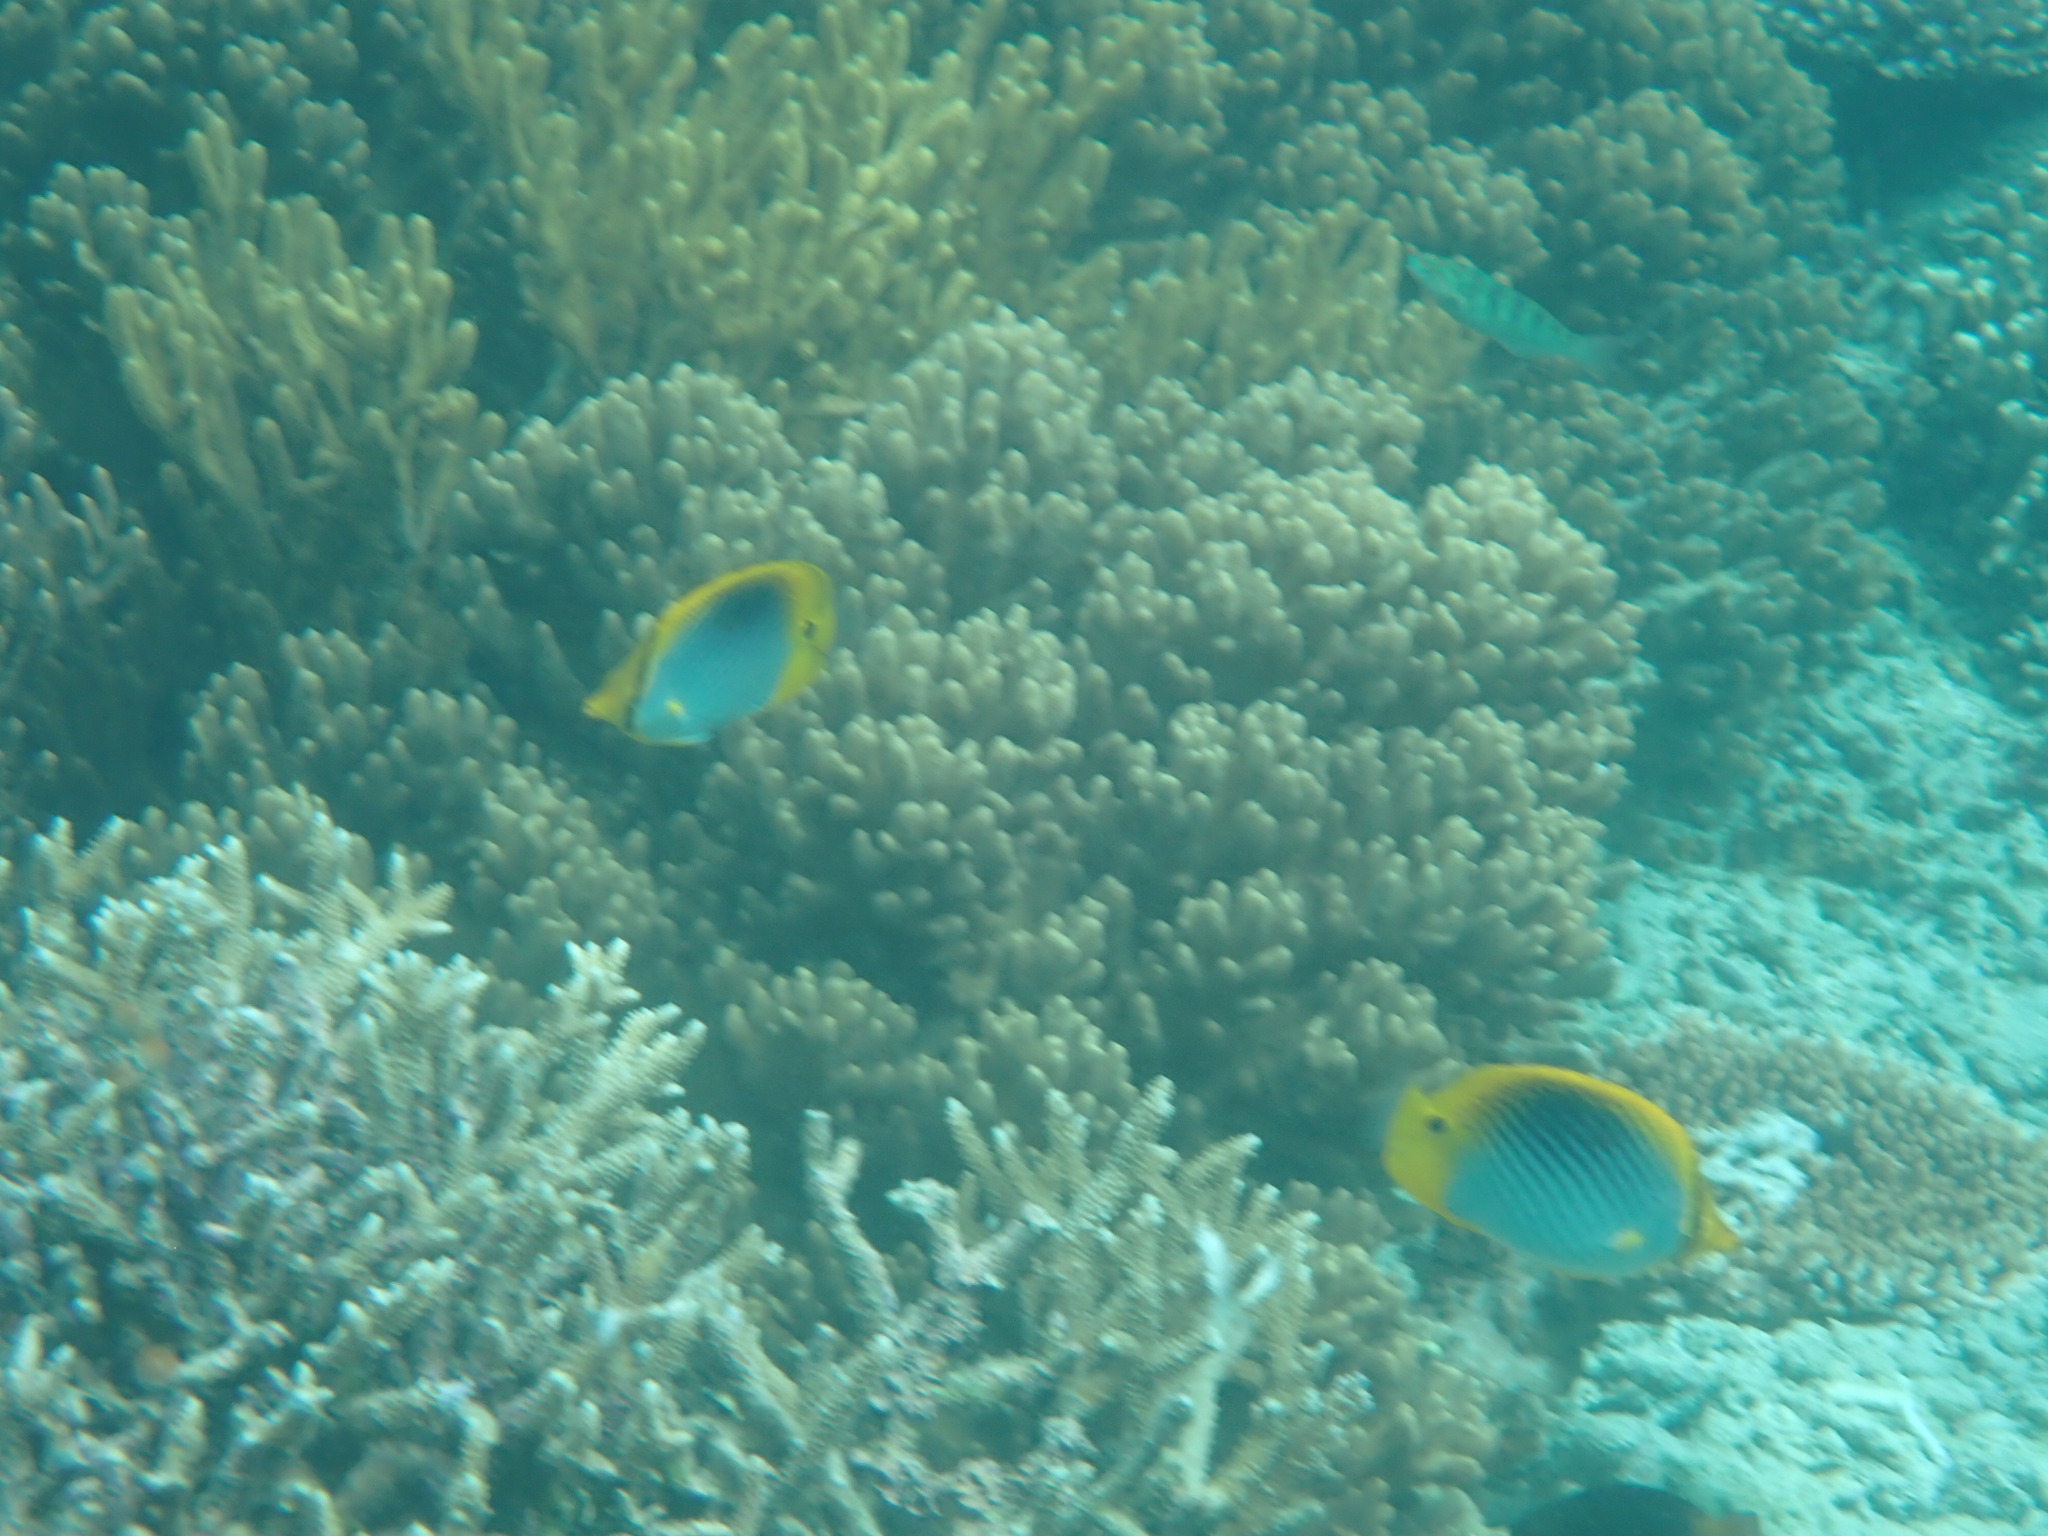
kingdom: Animalia
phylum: Chordata
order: Perciformes
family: Chaetodontidae
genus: Chaetodon
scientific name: Chaetodon ocellicaudus
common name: Spot-tail butterflyfish
